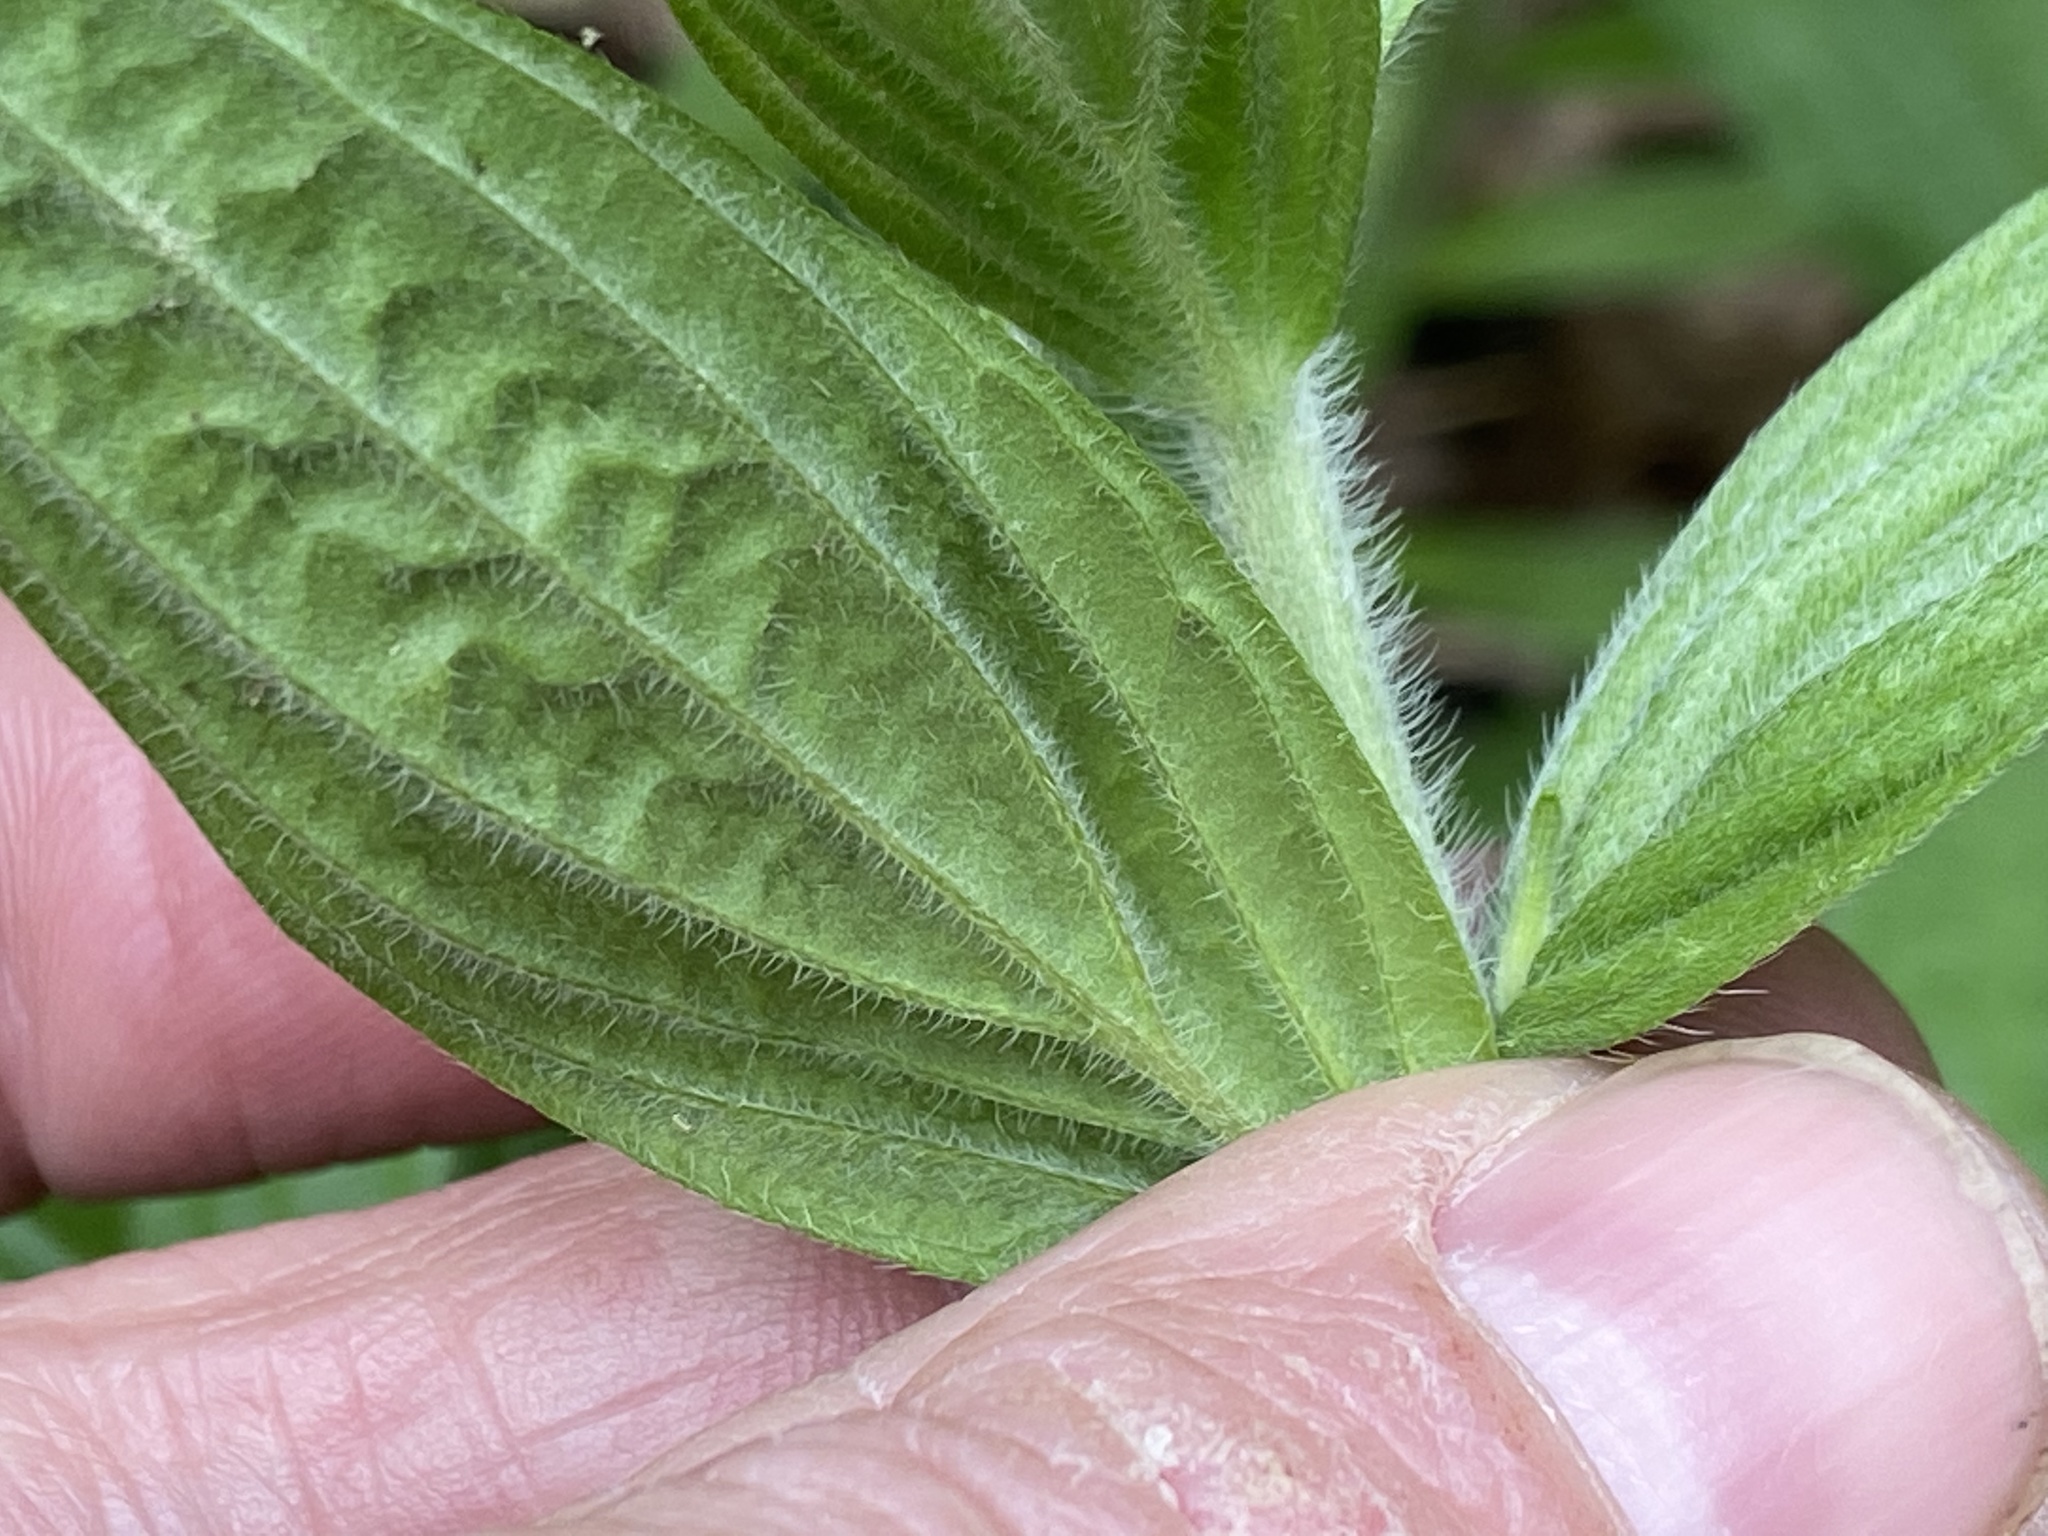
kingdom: Plantae
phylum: Tracheophyta
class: Magnoliopsida
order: Boraginales
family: Boraginaceae
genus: Lithospermum
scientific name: Lithospermum molle
